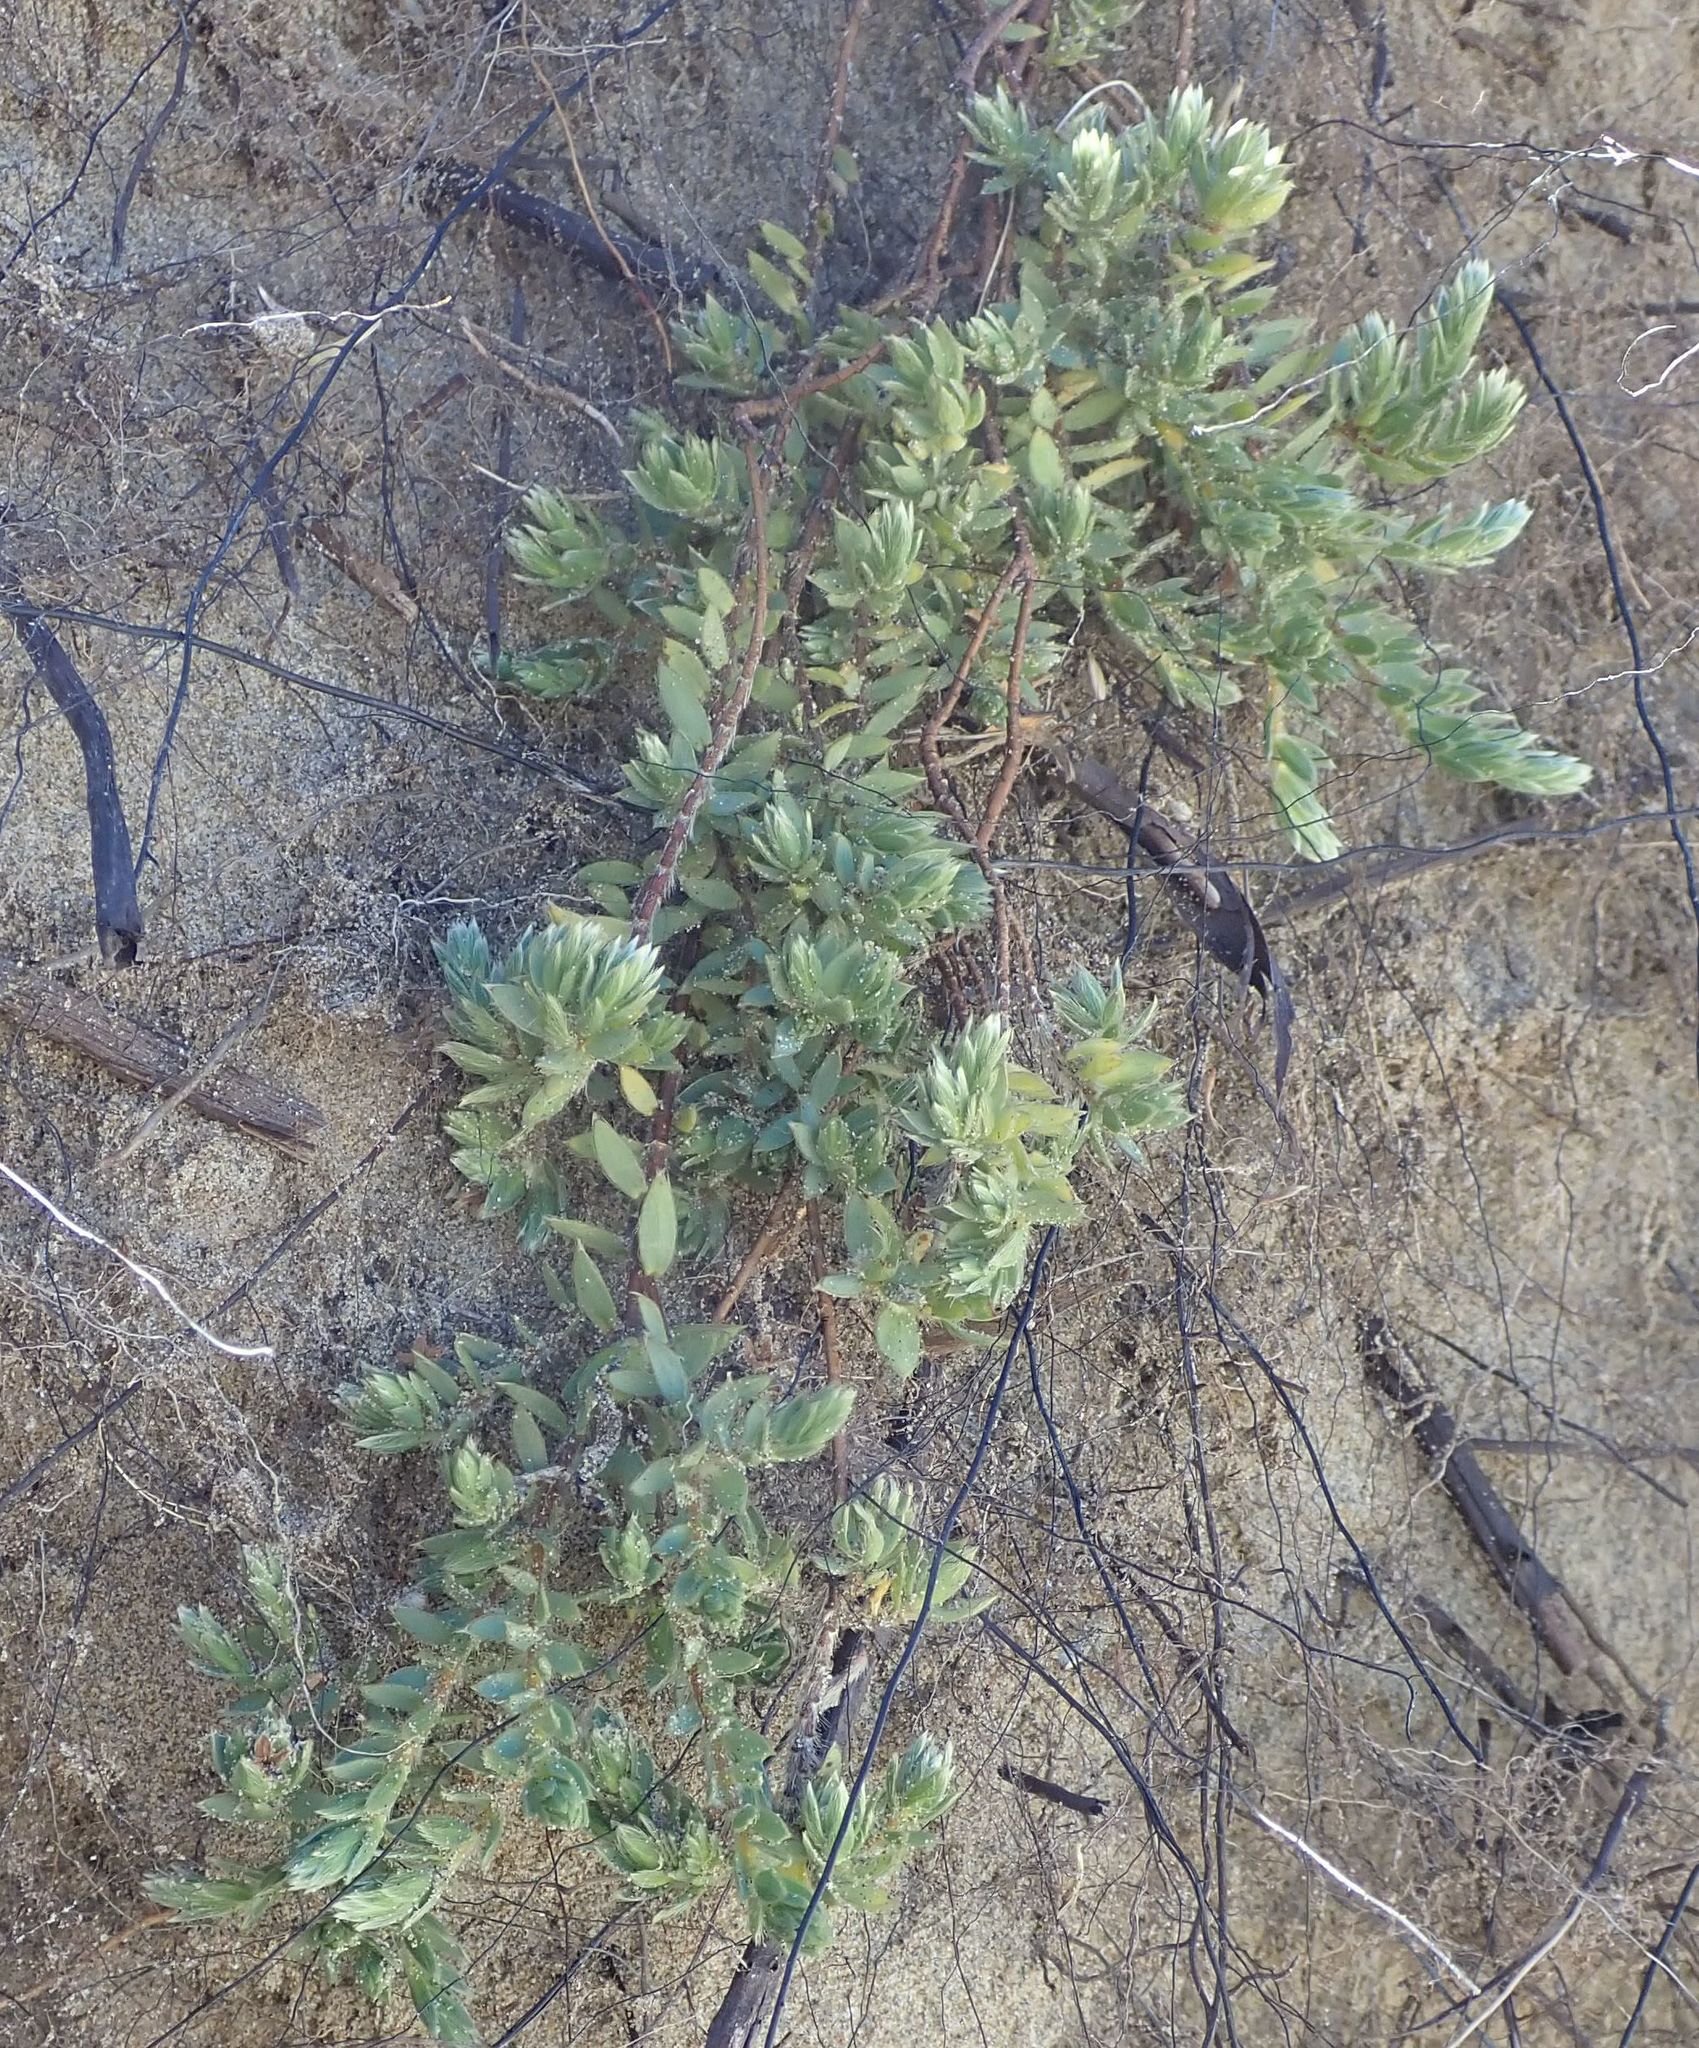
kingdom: Plantae
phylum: Tracheophyta
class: Magnoliopsida
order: Malvales
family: Thymelaeaceae
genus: Pimelea
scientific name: Pimelea lyallii
